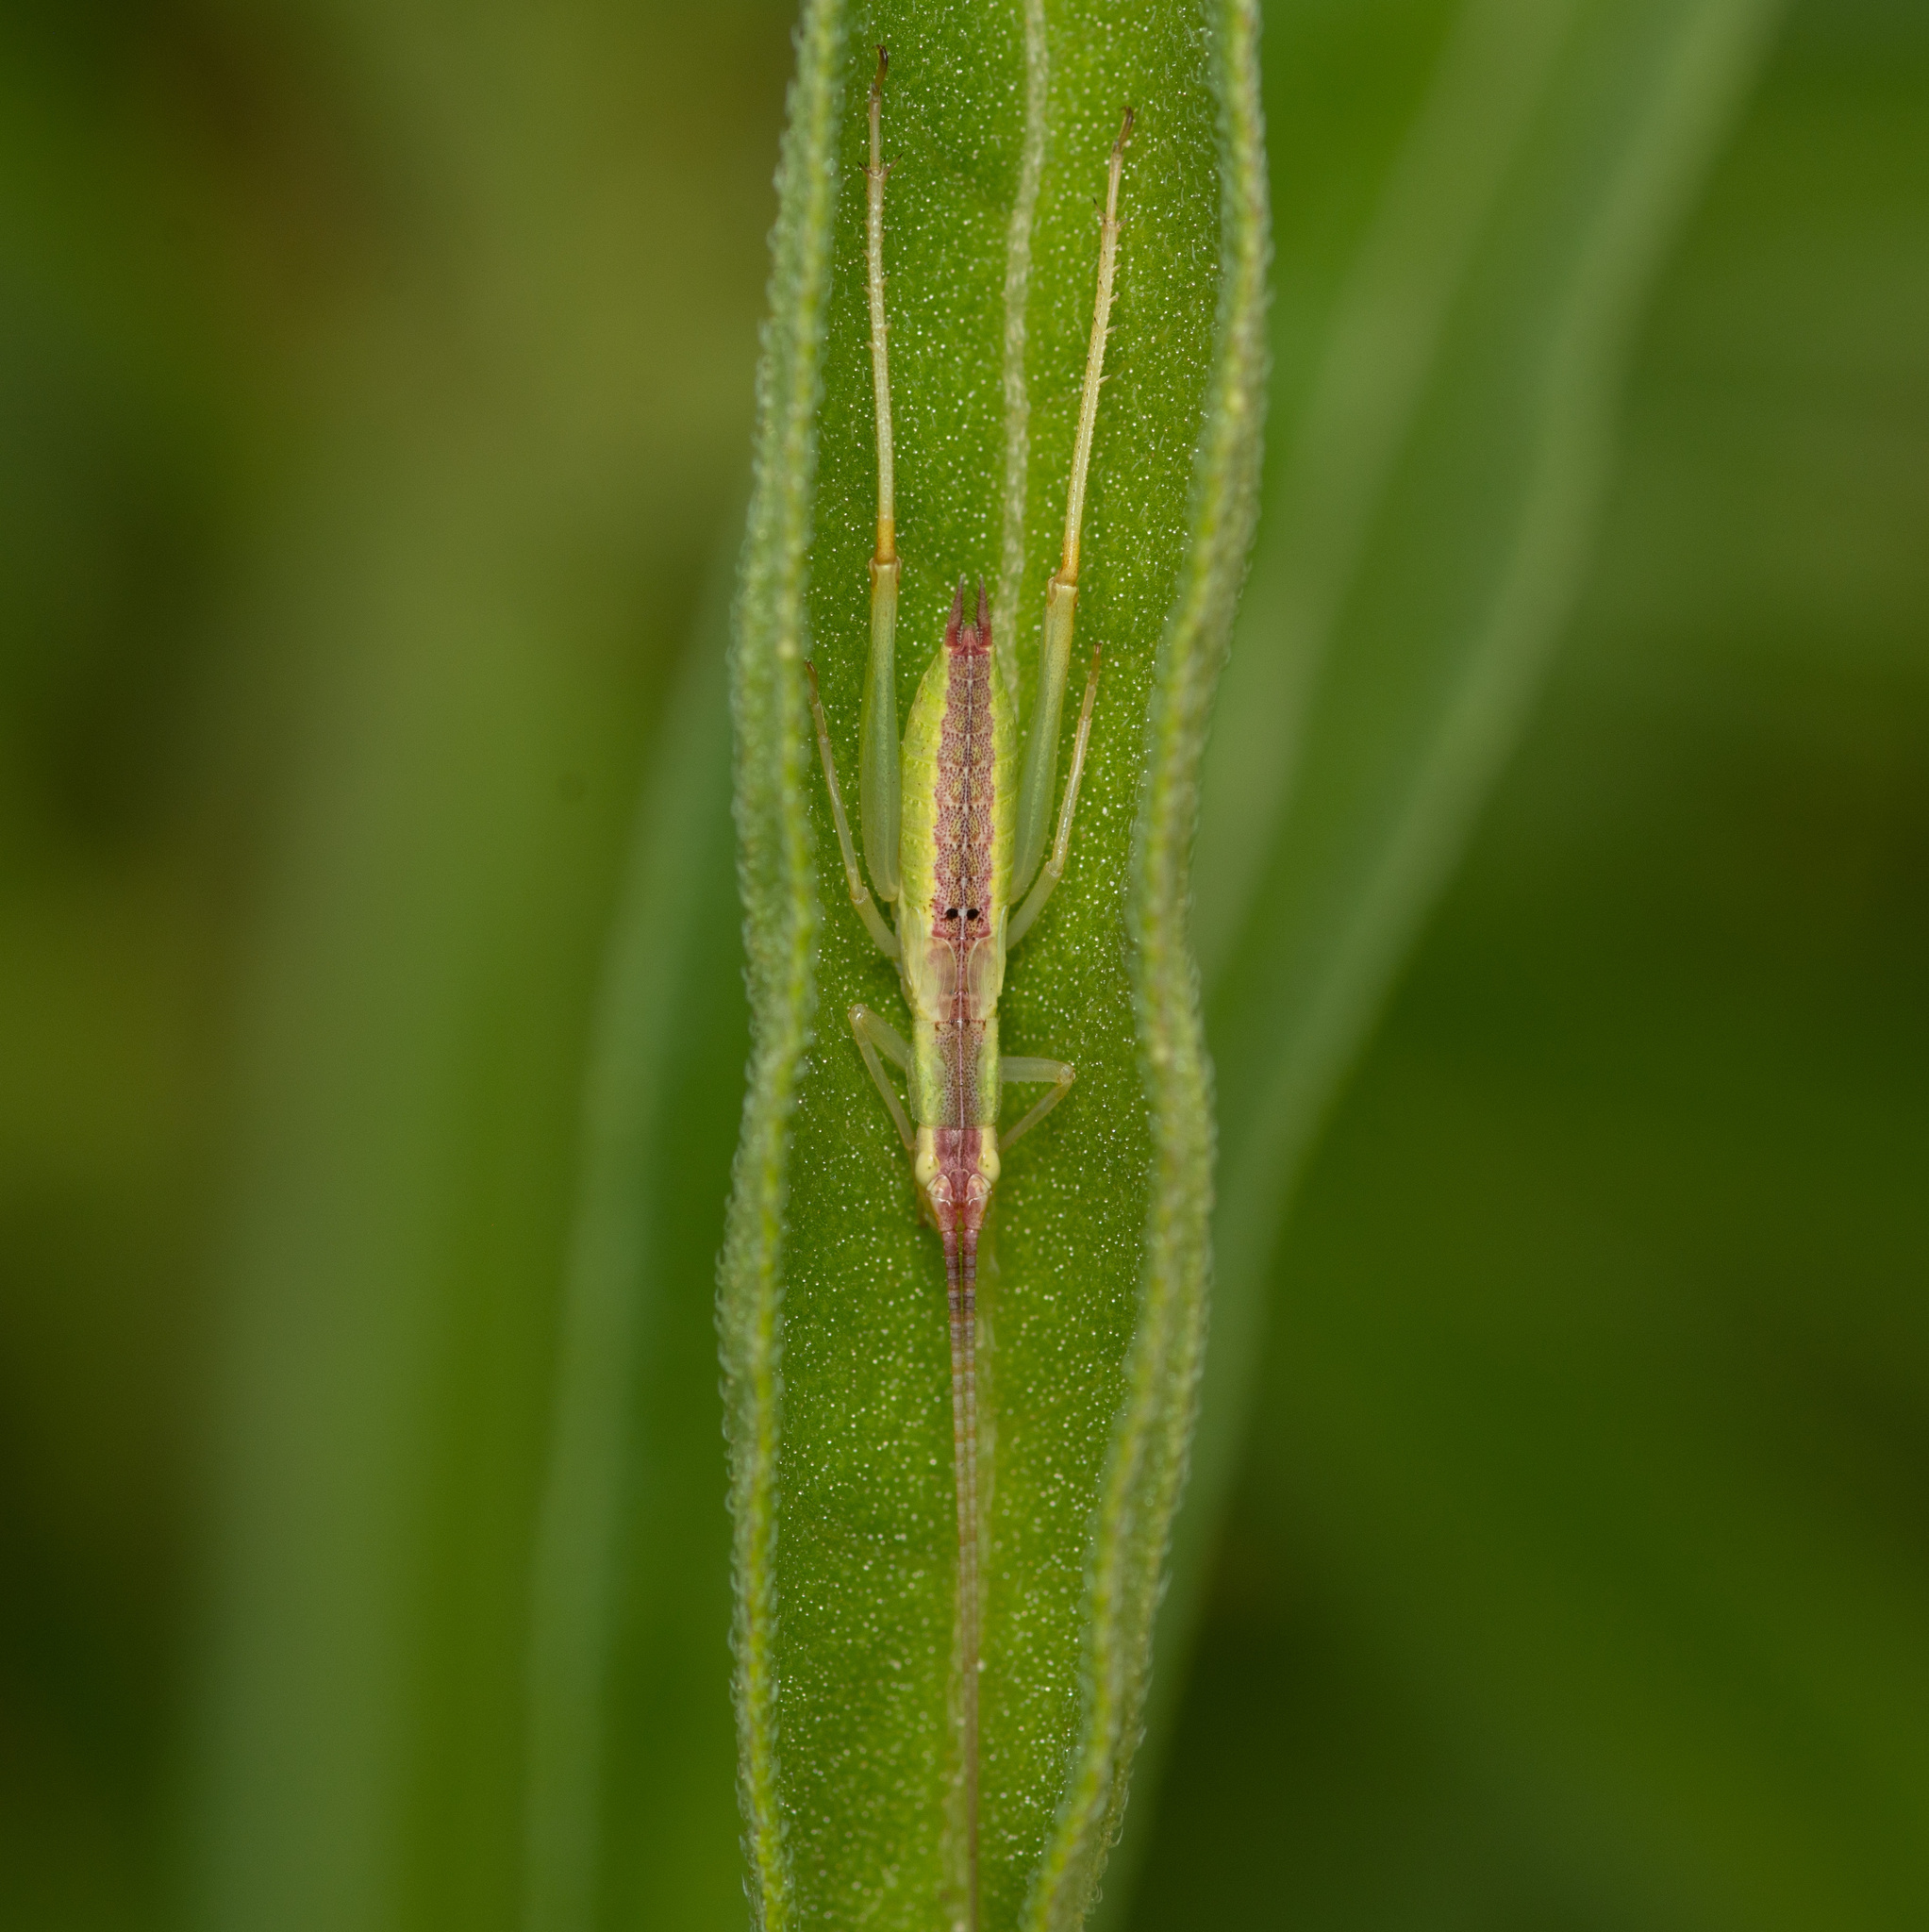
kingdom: Animalia
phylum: Arthropoda
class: Insecta
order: Orthoptera
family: Gryllidae
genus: Oecanthus
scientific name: Oecanthus varicornis
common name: Different-horned tree cricket
